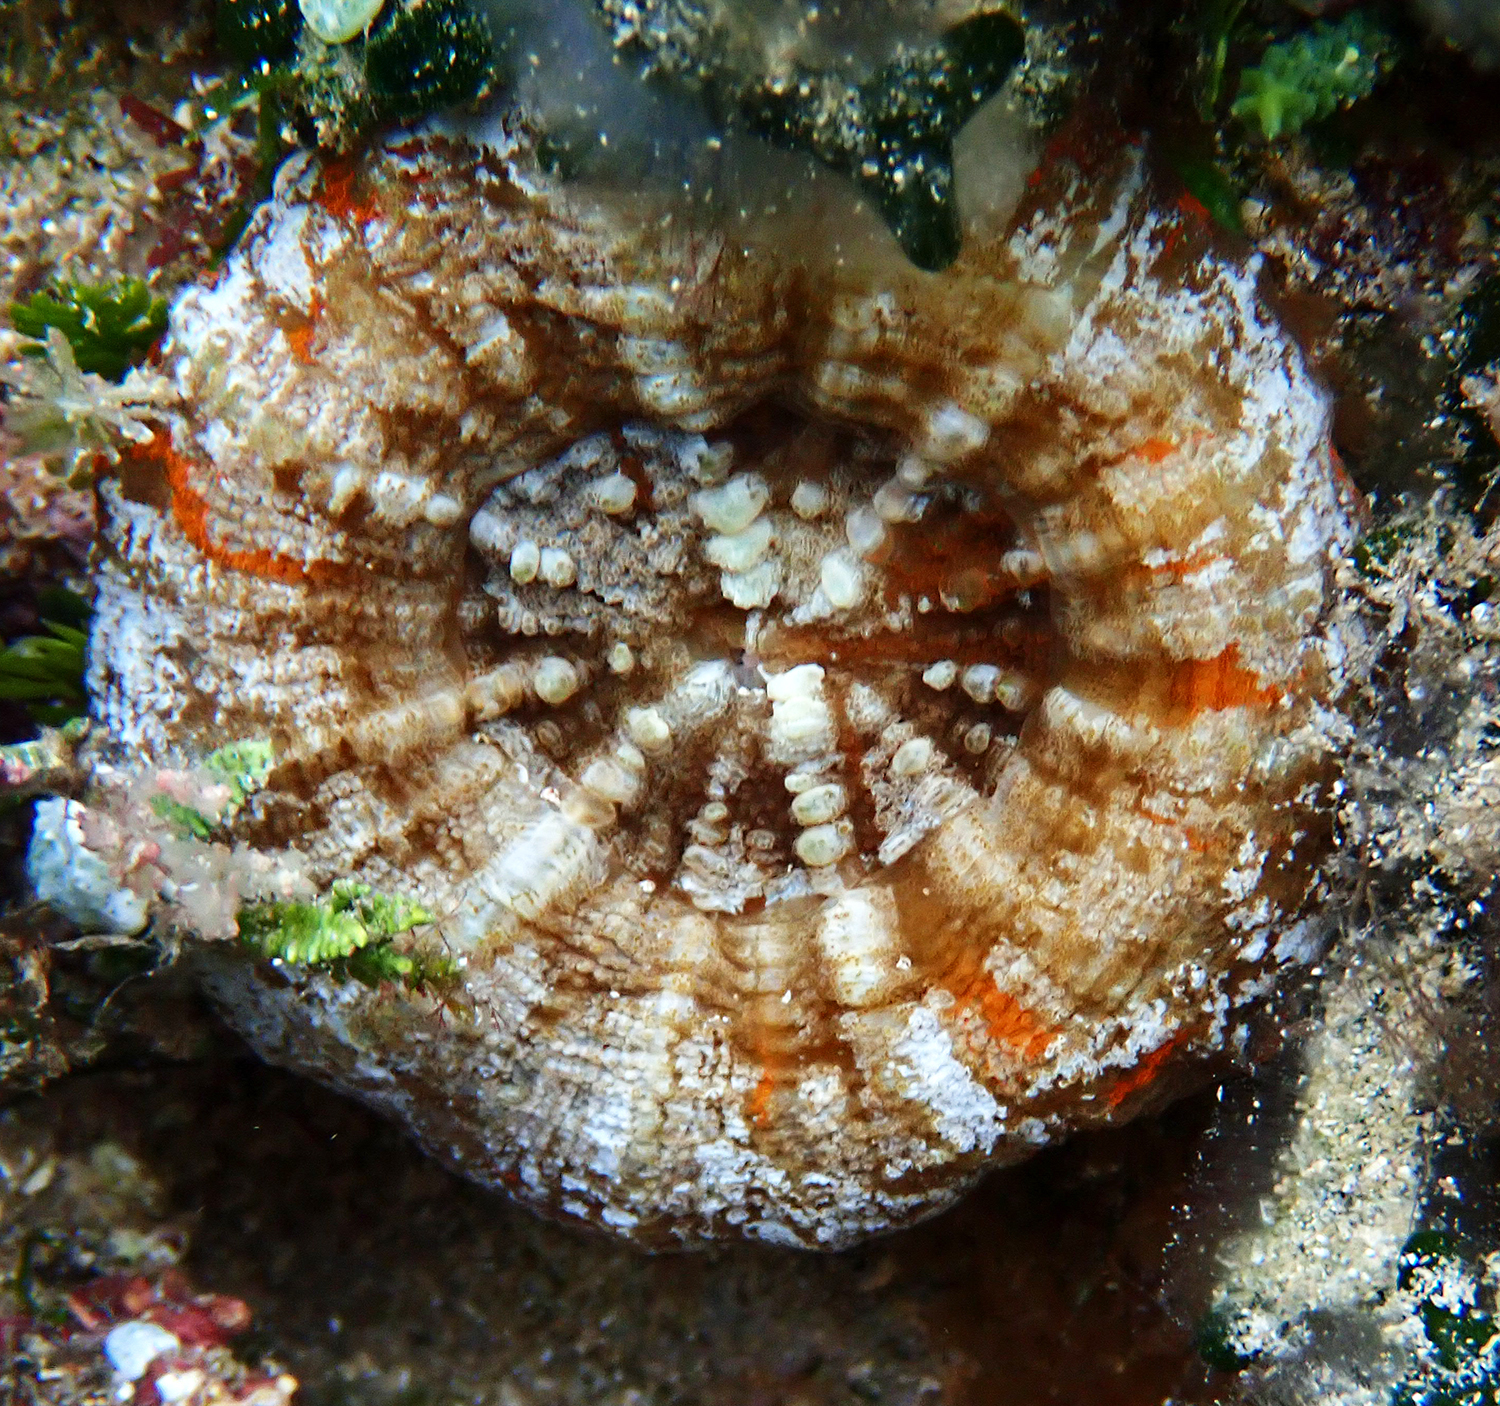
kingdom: Animalia
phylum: Cnidaria
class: Anthozoa
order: Scleractinia
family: Lobophylliidae
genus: Homophyllia
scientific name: Homophyllia australis
